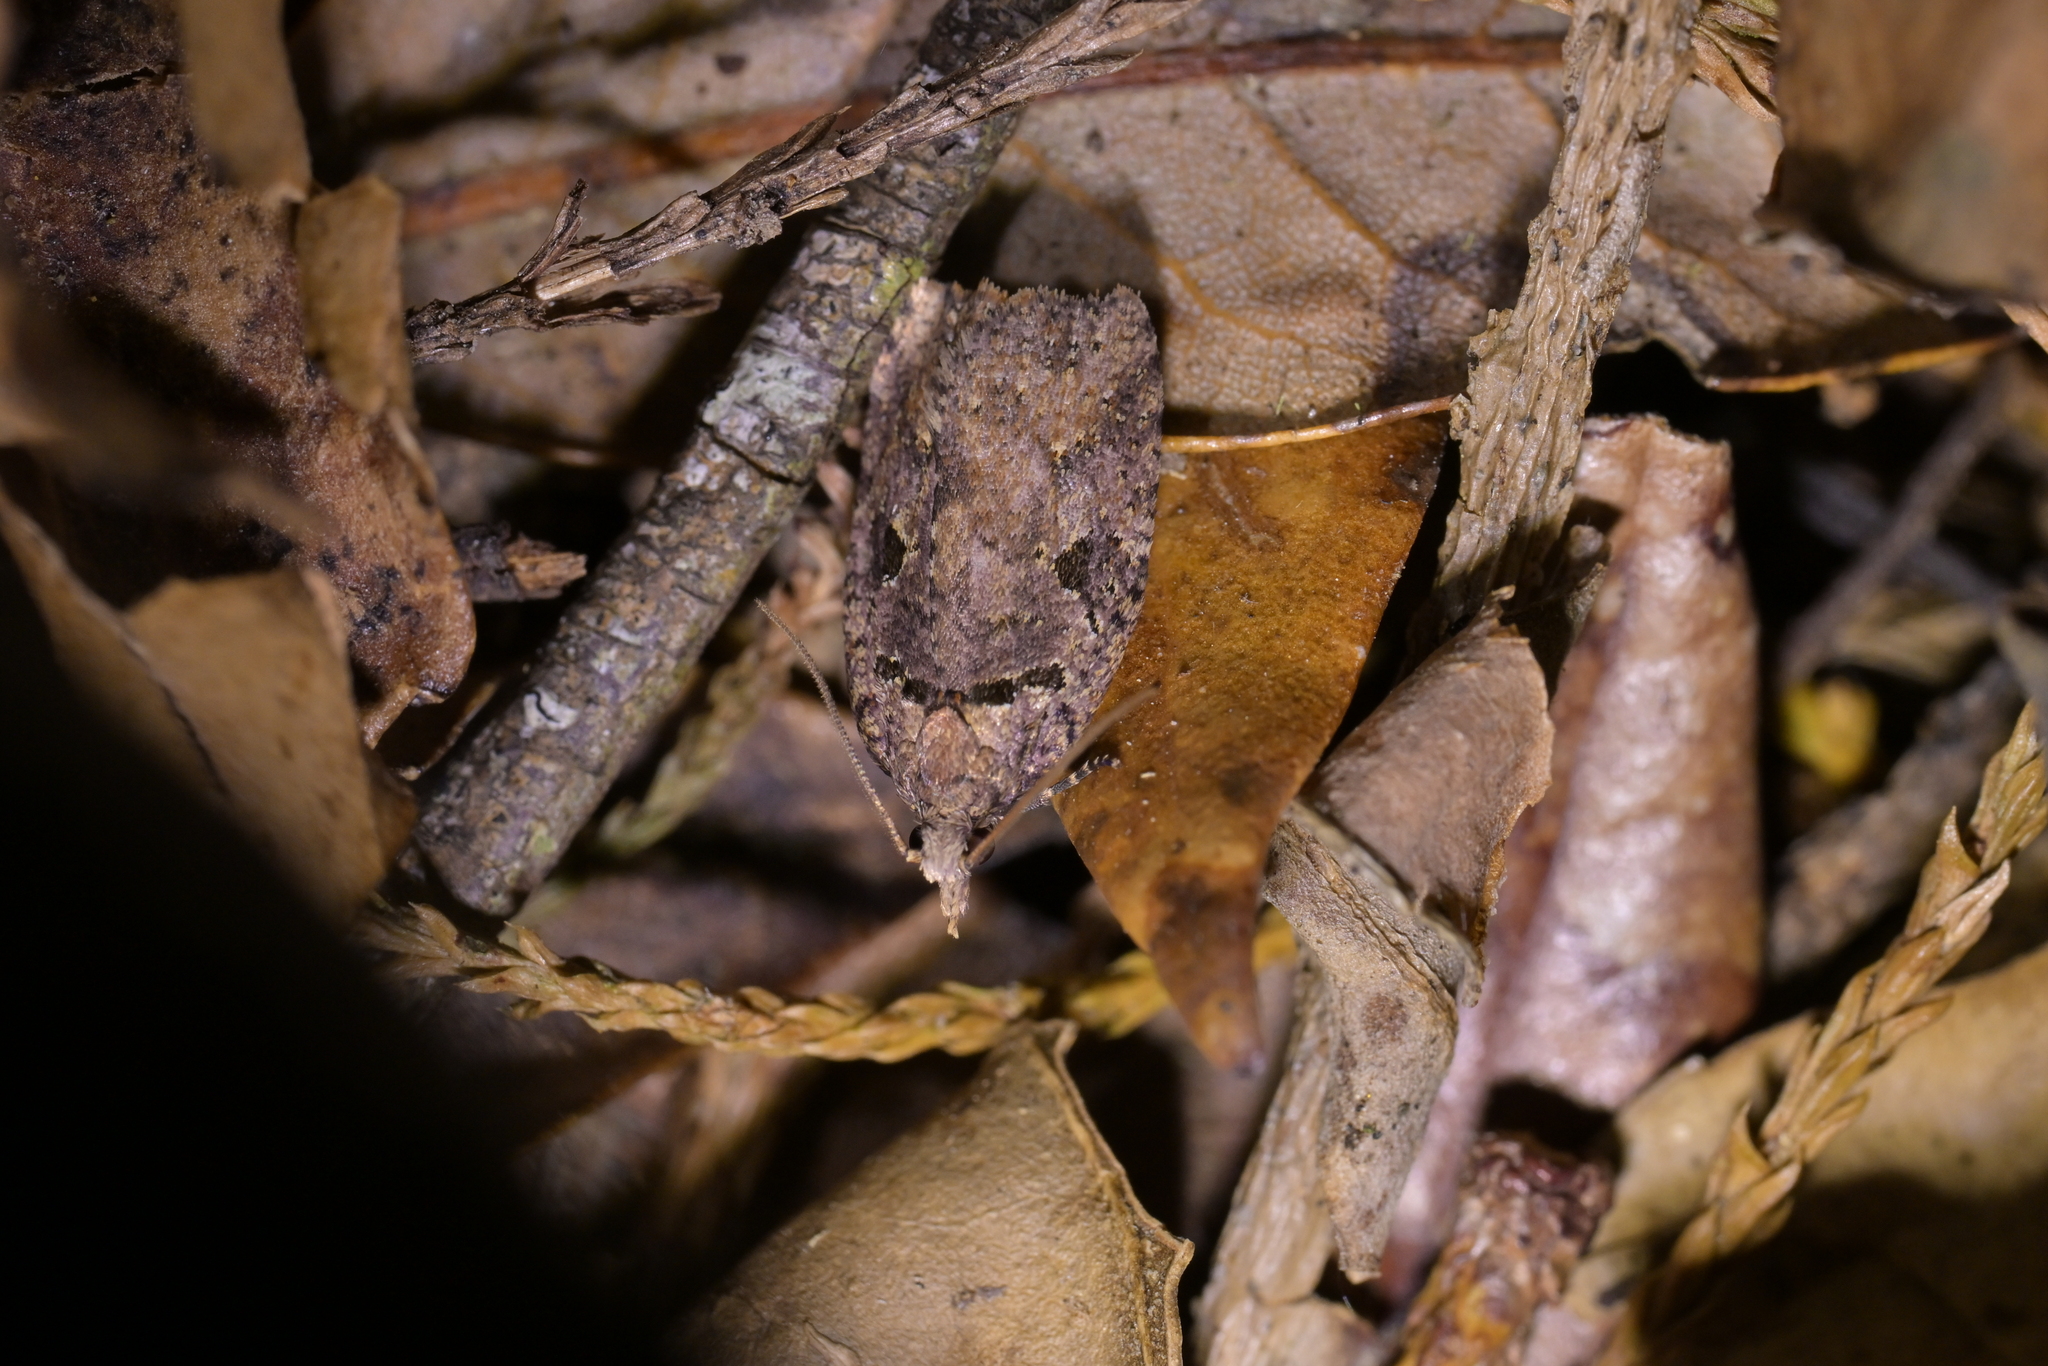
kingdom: Animalia
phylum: Arthropoda
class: Insecta
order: Lepidoptera
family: Tortricidae
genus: Ctenopseustis
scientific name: Ctenopseustis obliquana
